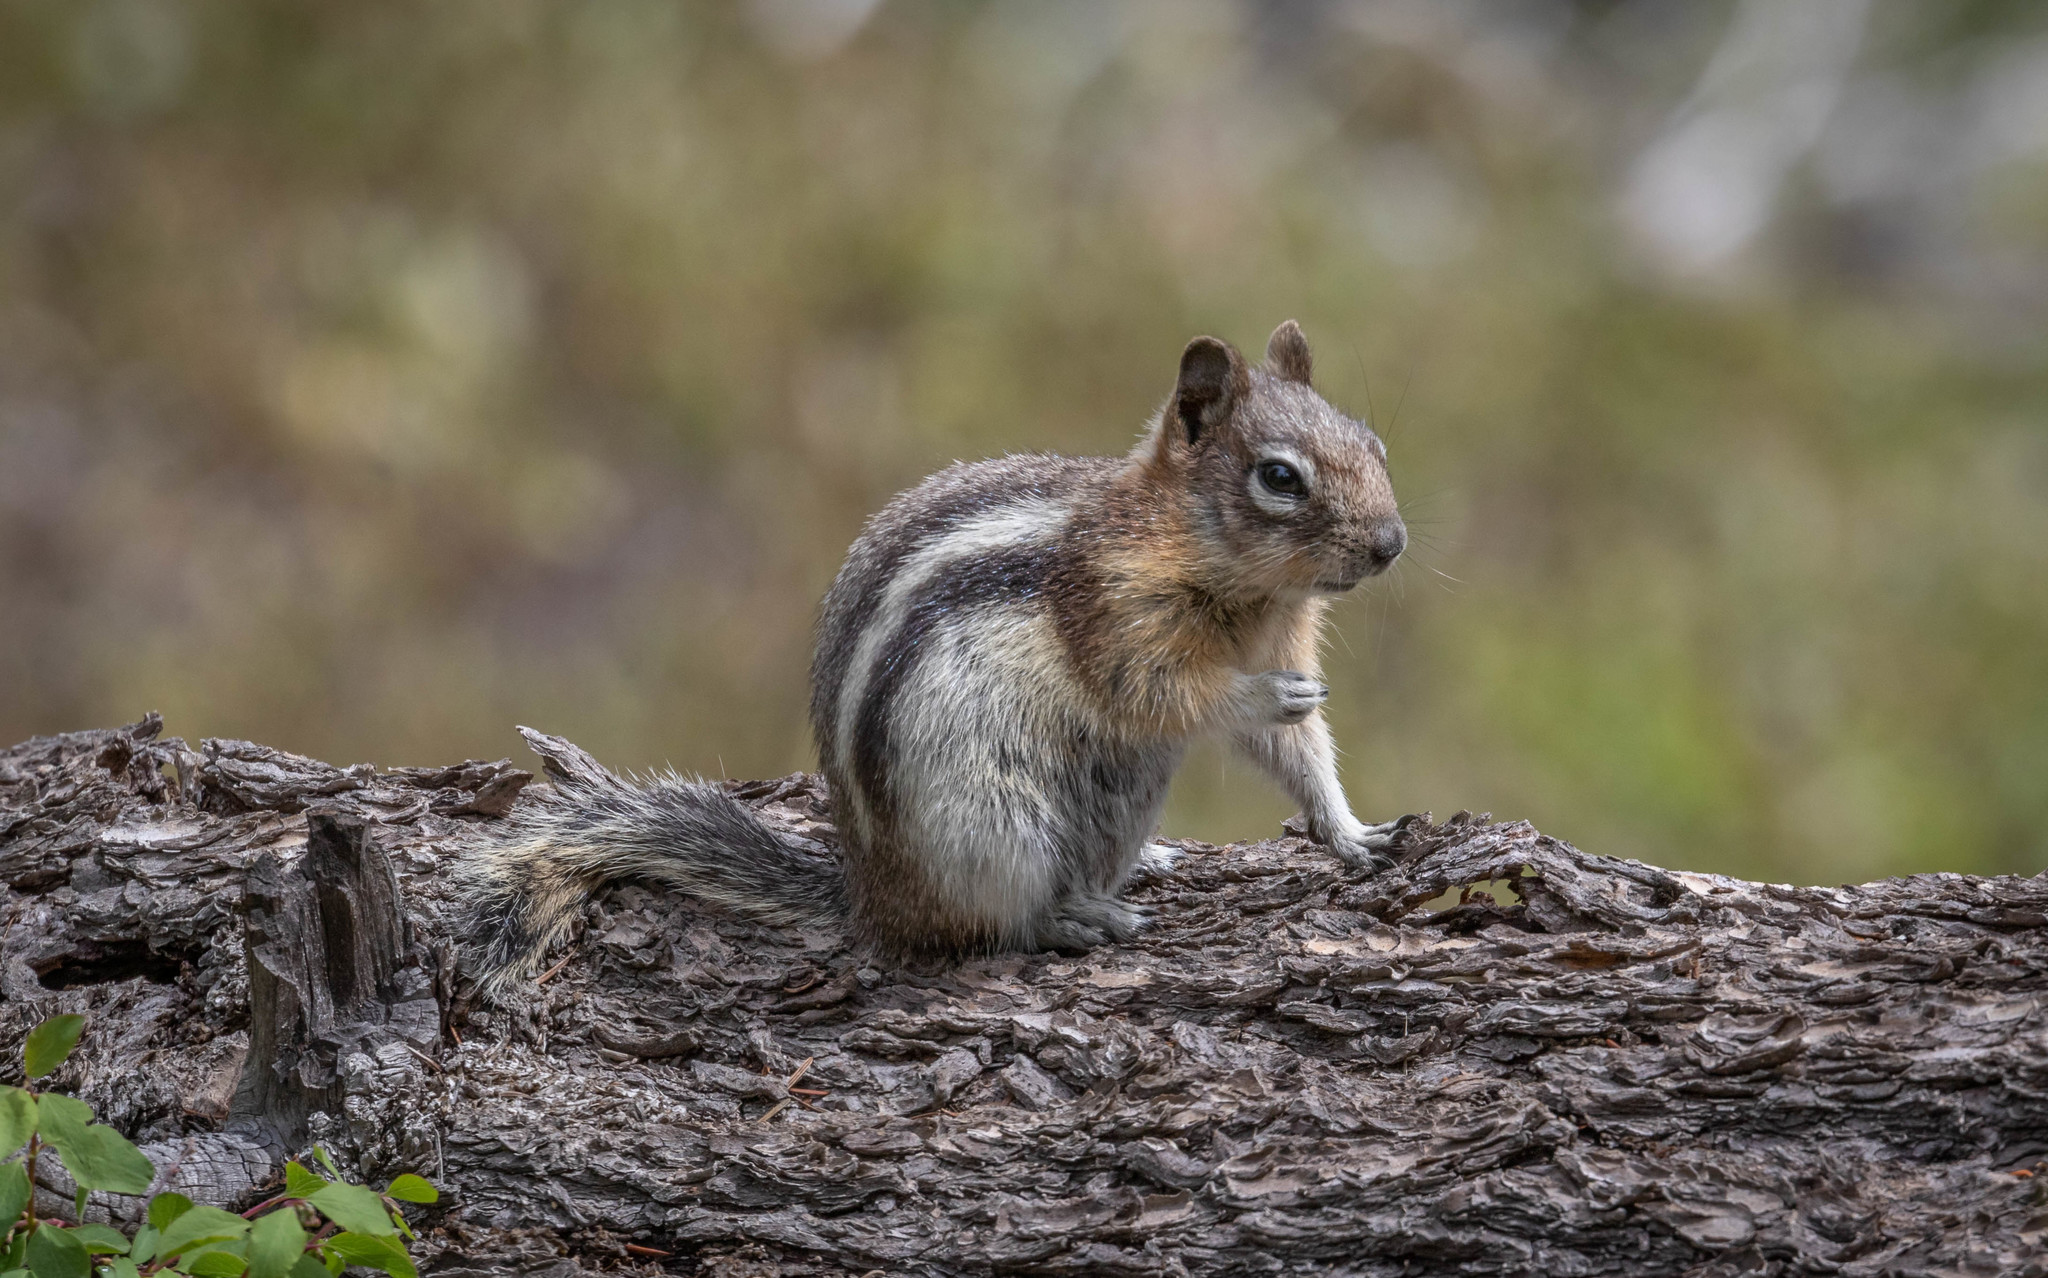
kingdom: Animalia
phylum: Chordata
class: Mammalia
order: Rodentia
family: Sciuridae
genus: Callospermophilus
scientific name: Callospermophilus lateralis
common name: Golden-mantled ground squirrel
